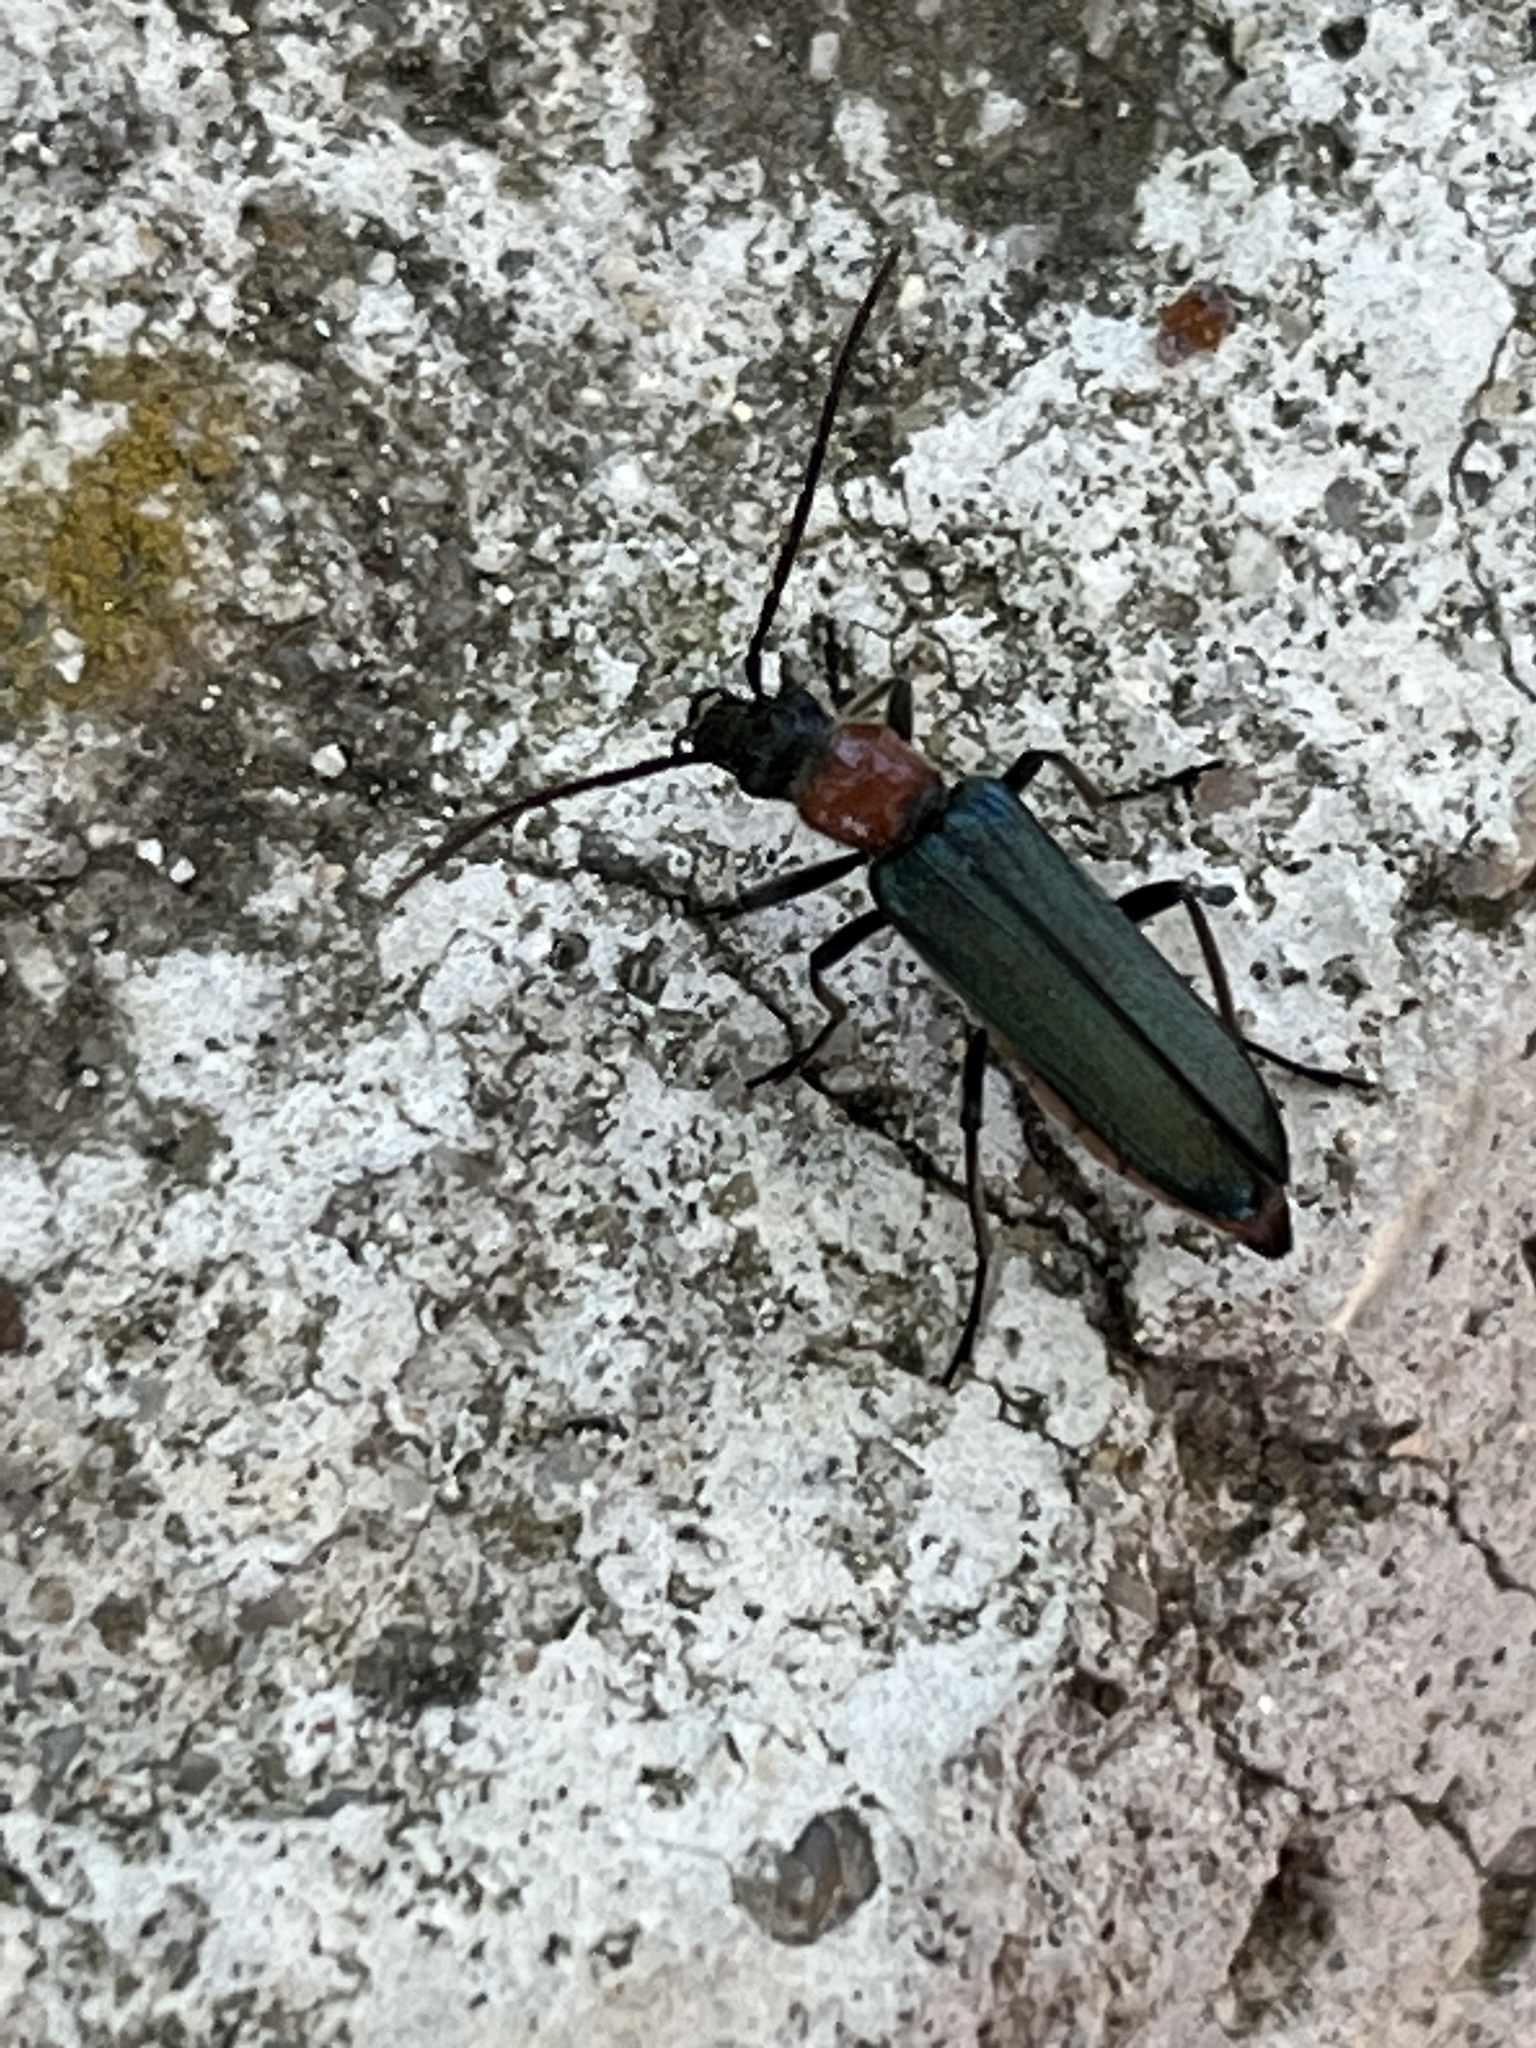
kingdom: Animalia
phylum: Arthropoda
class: Insecta
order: Coleoptera
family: Oedemeridae
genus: Anogcodes
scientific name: Anogcodes ruficollis
